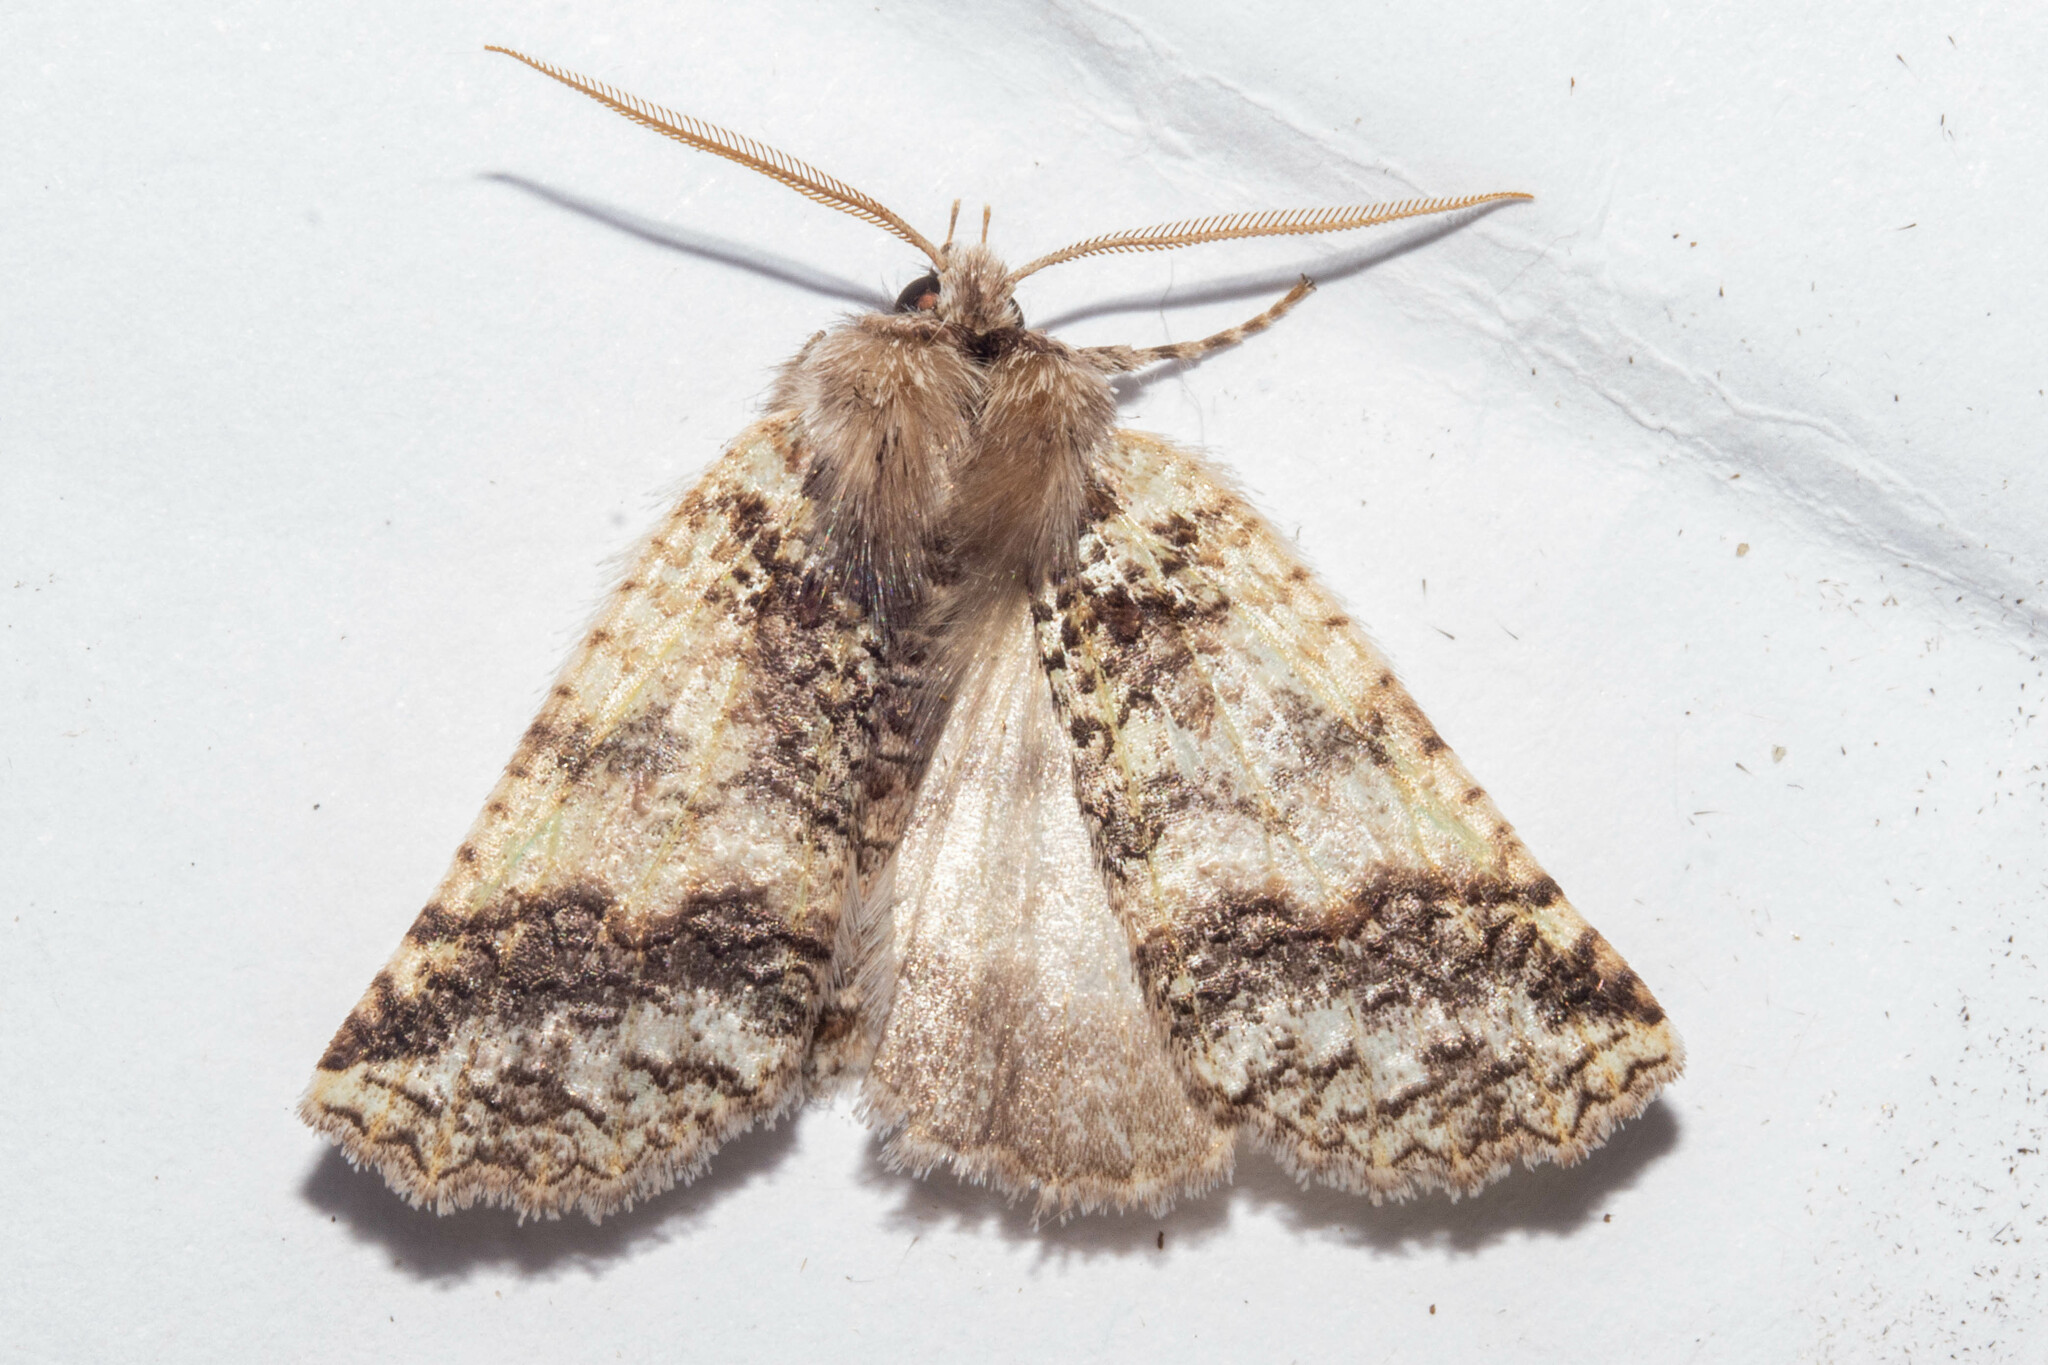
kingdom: Animalia
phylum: Arthropoda
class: Insecta
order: Lepidoptera
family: Geometridae
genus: Declana
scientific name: Declana floccosa
